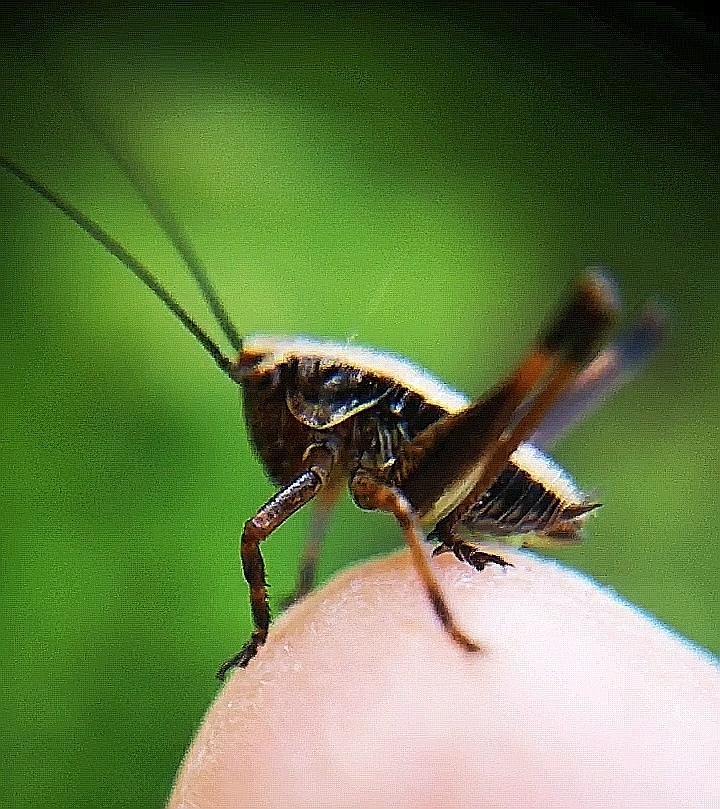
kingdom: Animalia
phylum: Arthropoda
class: Insecta
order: Orthoptera
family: Tettigoniidae
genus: Pholidoptera
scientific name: Pholidoptera griseoaptera
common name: Dark bush-cricket
